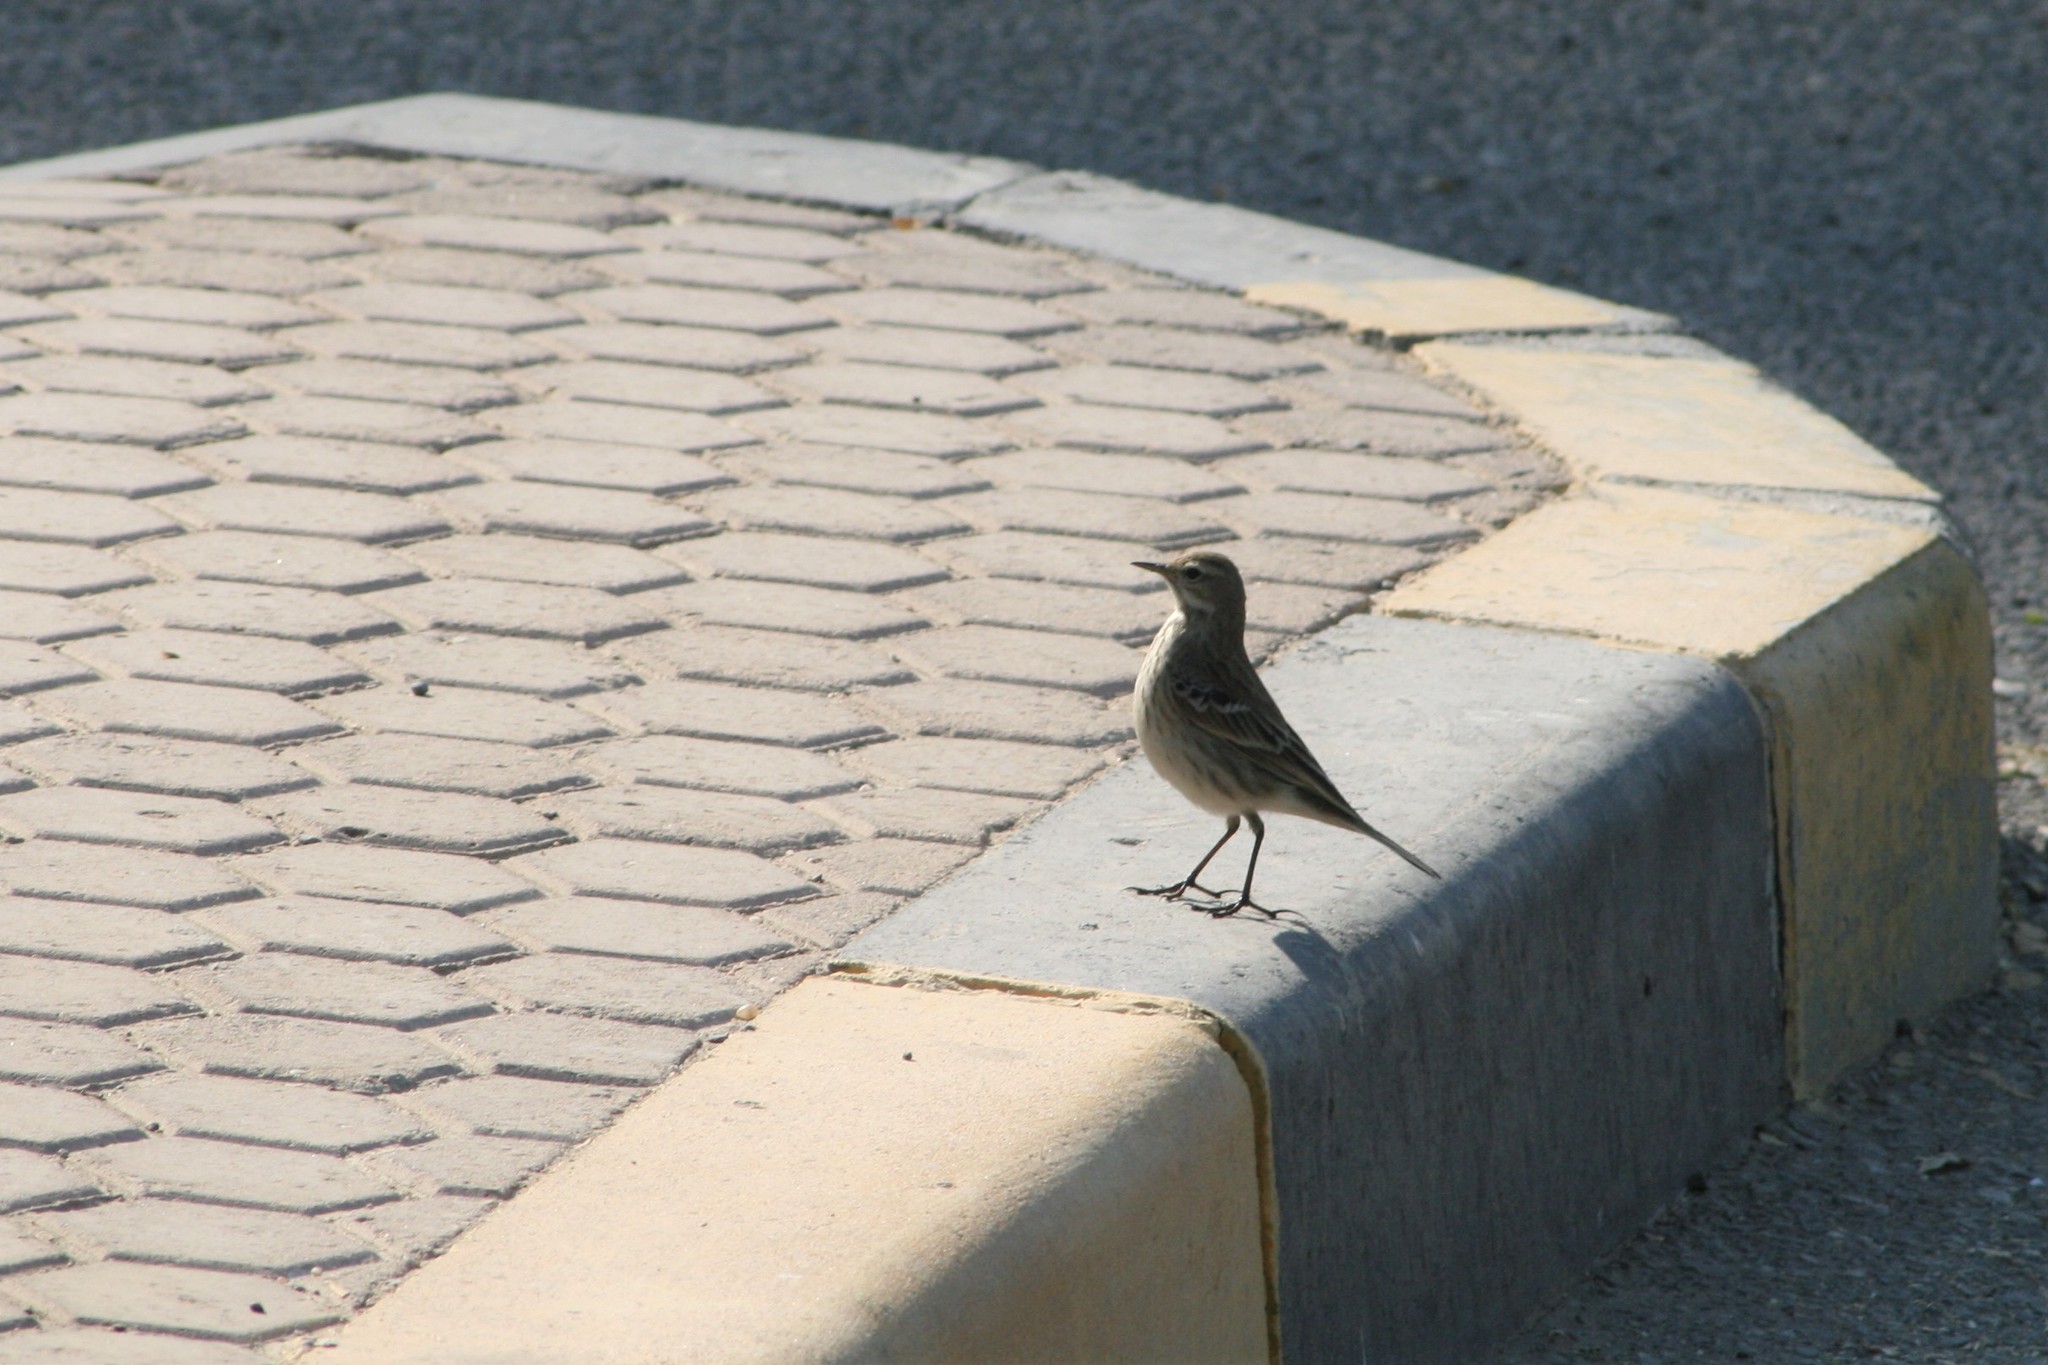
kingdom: Animalia
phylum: Chordata
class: Aves
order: Passeriformes
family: Motacillidae
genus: Anthus
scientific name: Anthus spinoletta
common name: Water pipit
